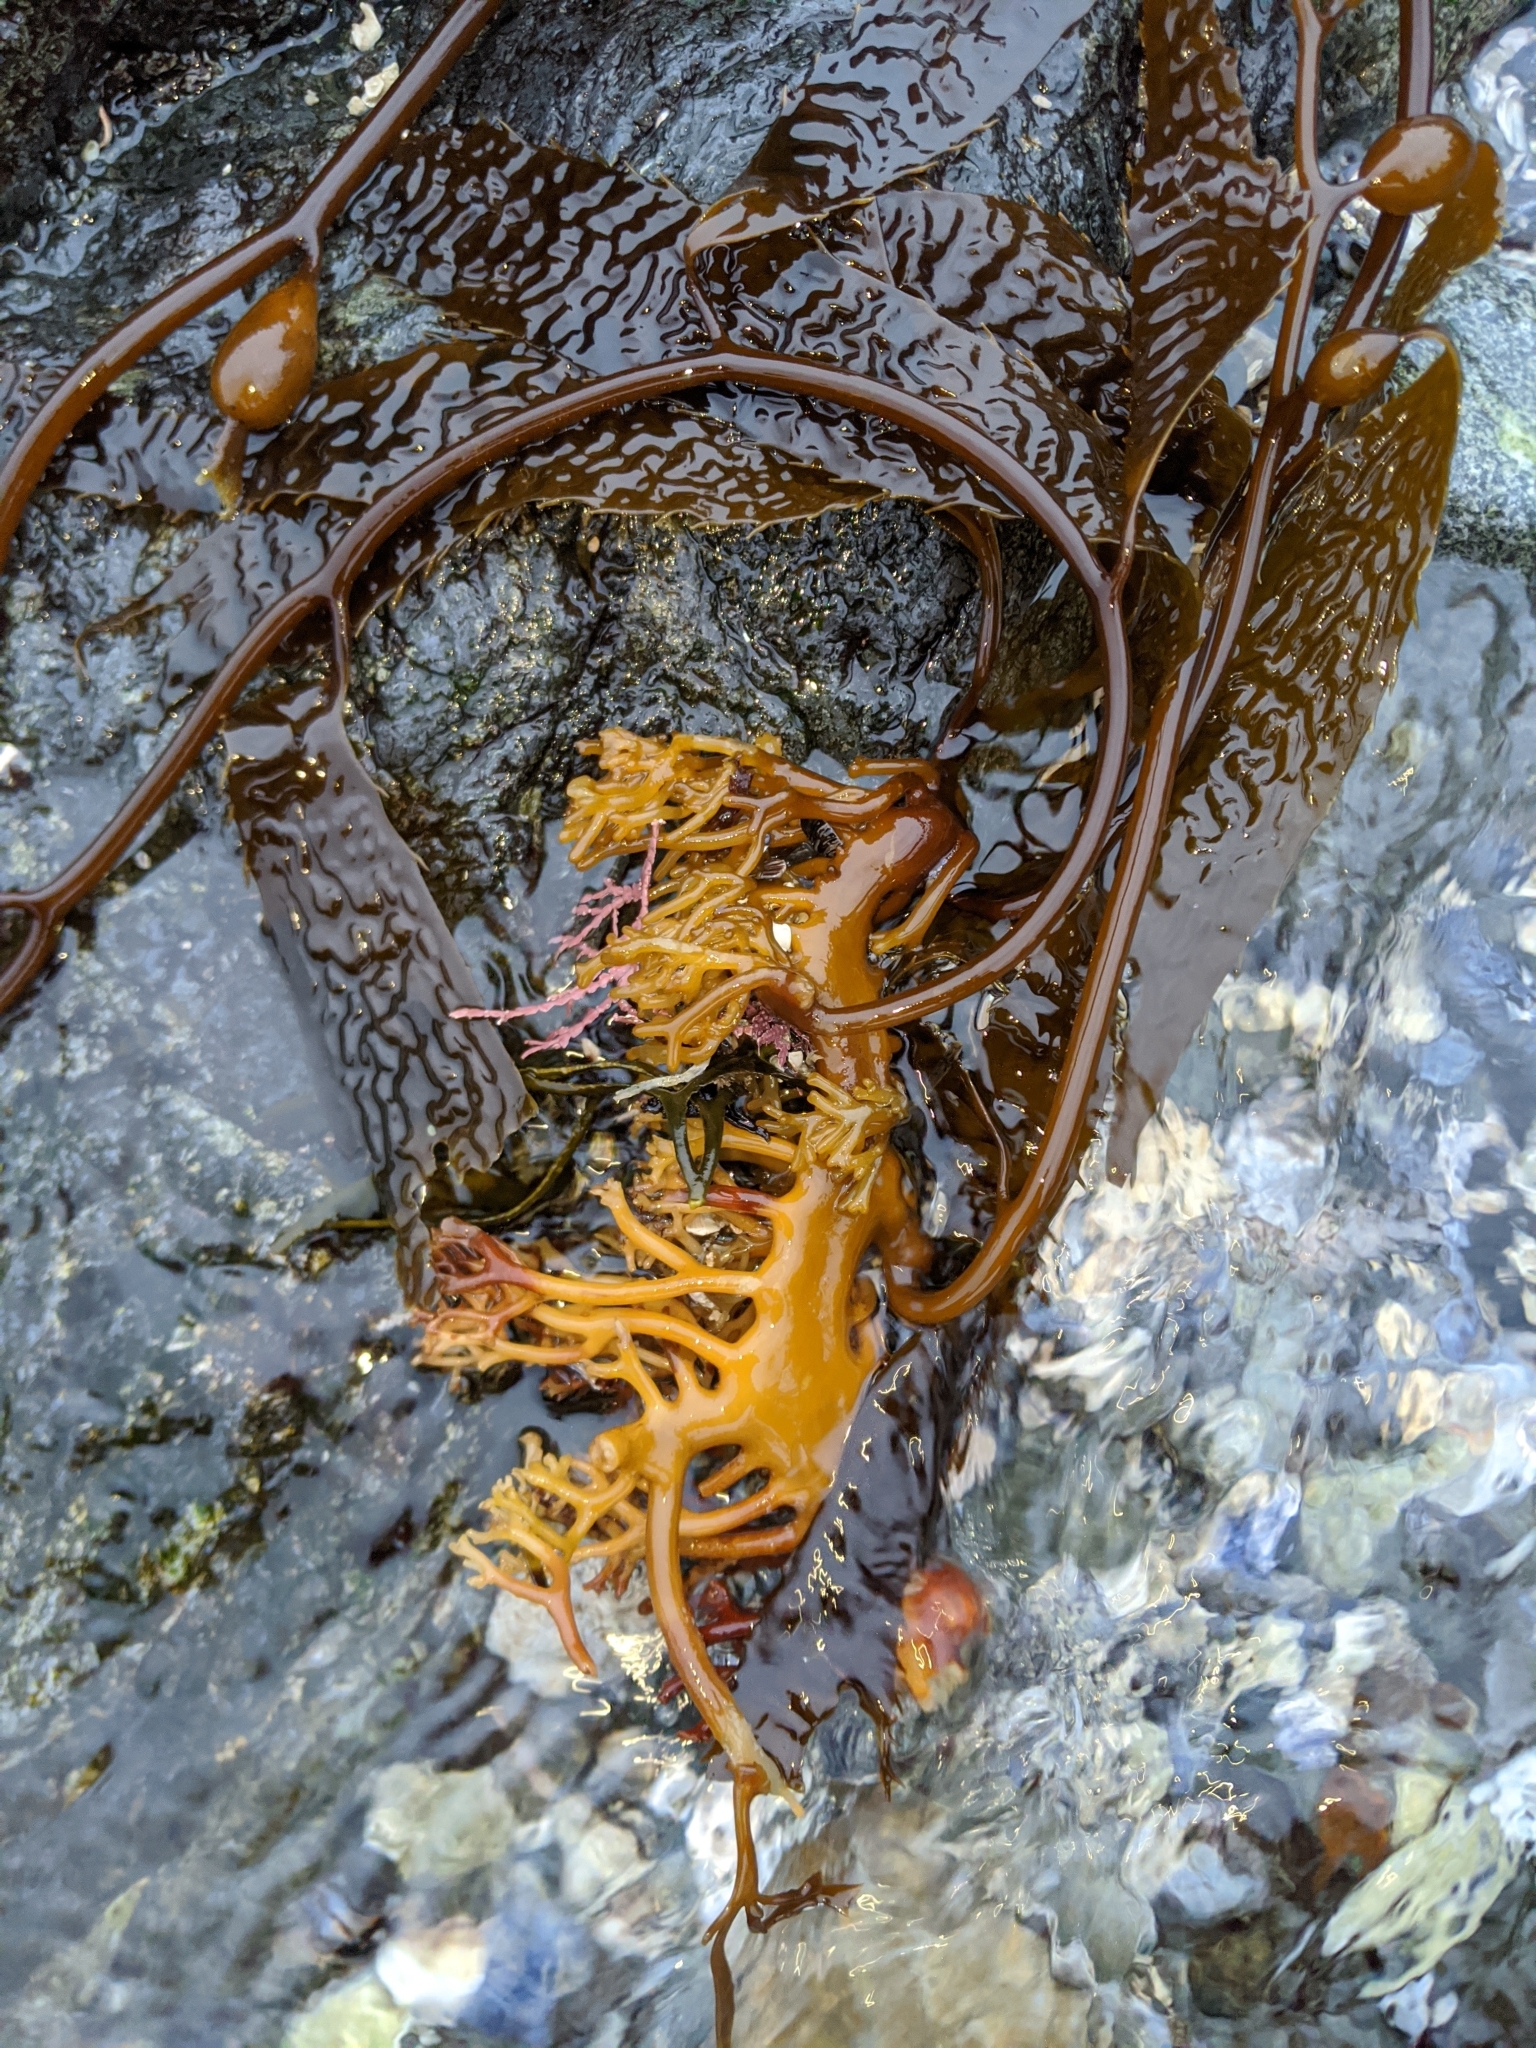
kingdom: Chromista
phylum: Ochrophyta
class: Phaeophyceae
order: Laminariales
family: Laminariaceae
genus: Macrocystis
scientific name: Macrocystis pyrifera
